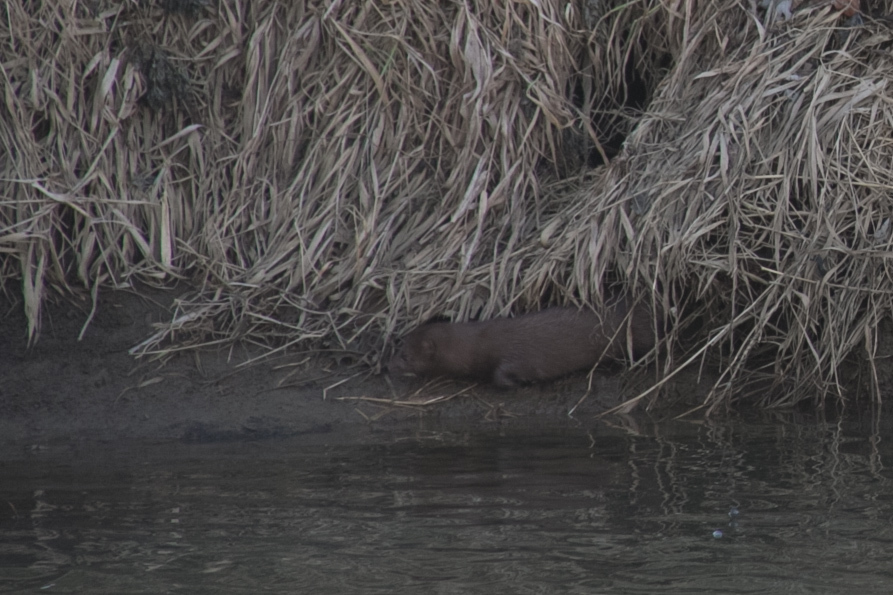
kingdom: Animalia
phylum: Chordata
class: Mammalia
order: Carnivora
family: Mustelidae
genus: Mustela
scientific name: Mustela
